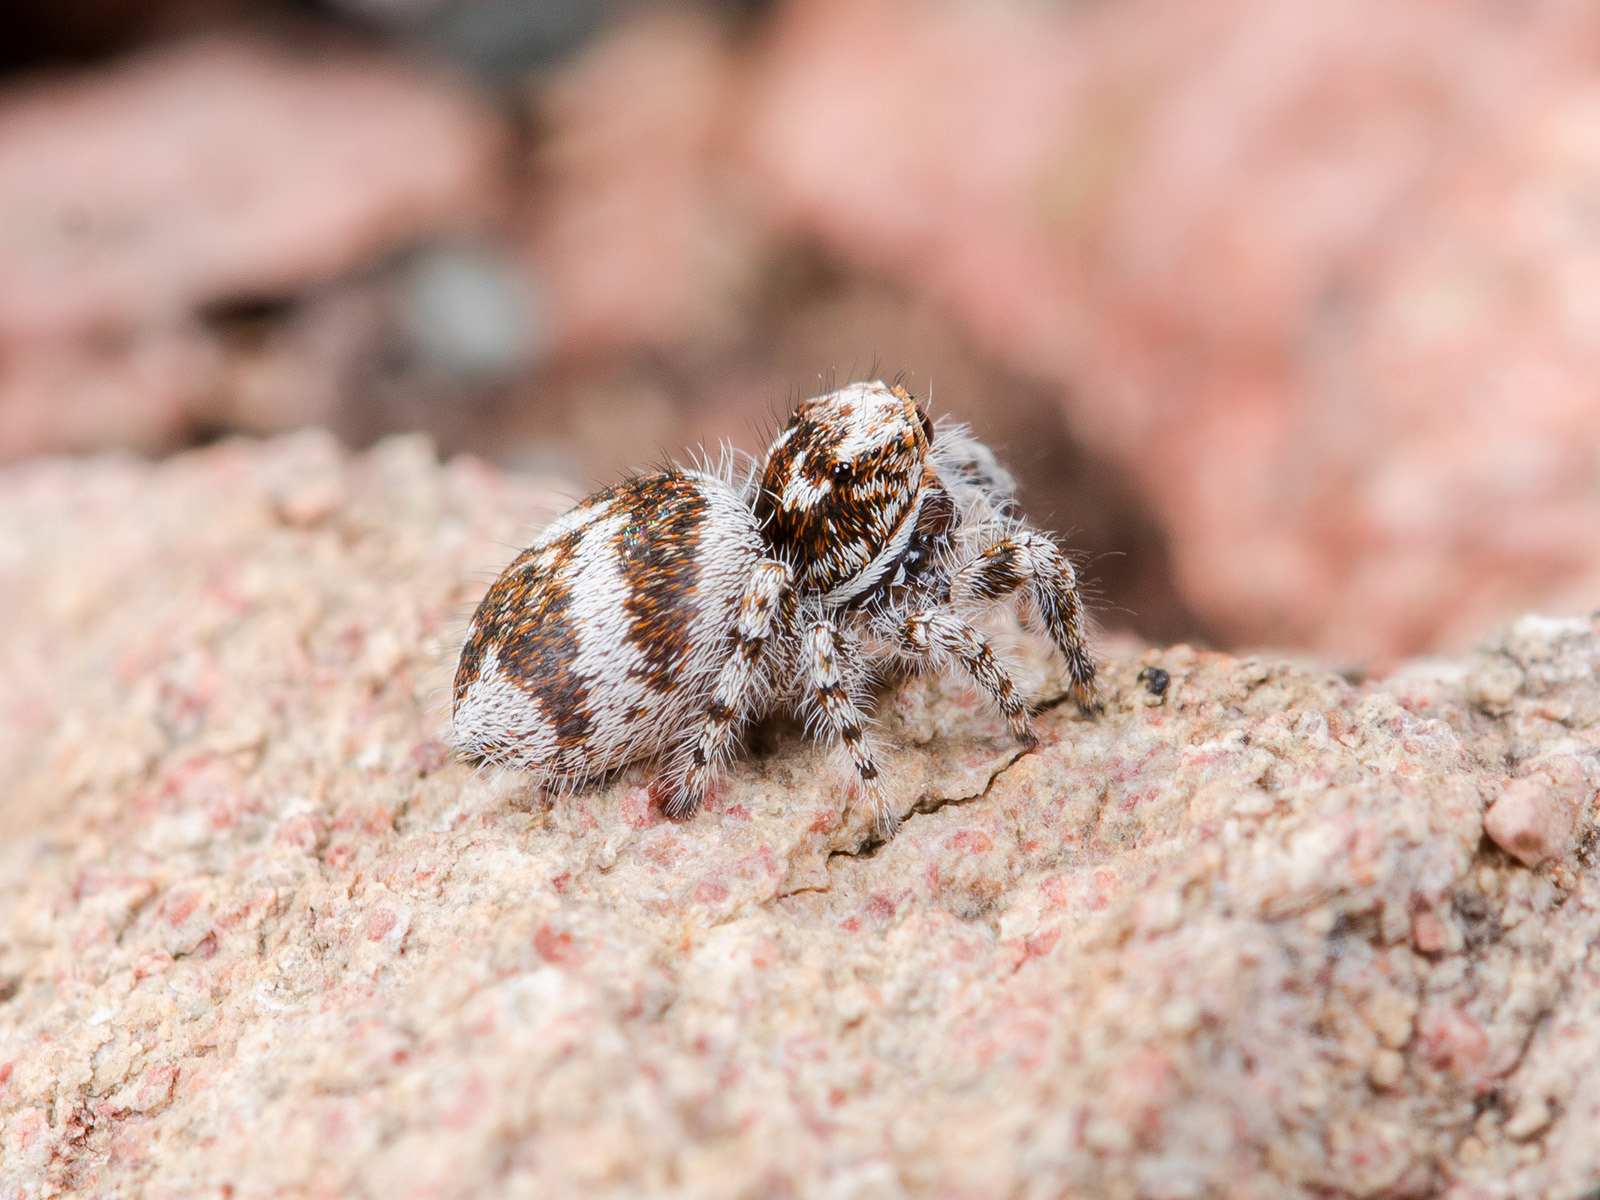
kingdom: Animalia
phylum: Arthropoda
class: Arachnida
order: Araneae
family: Salticidae
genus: Pseudomogrus
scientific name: Pseudomogrus albocinctus
